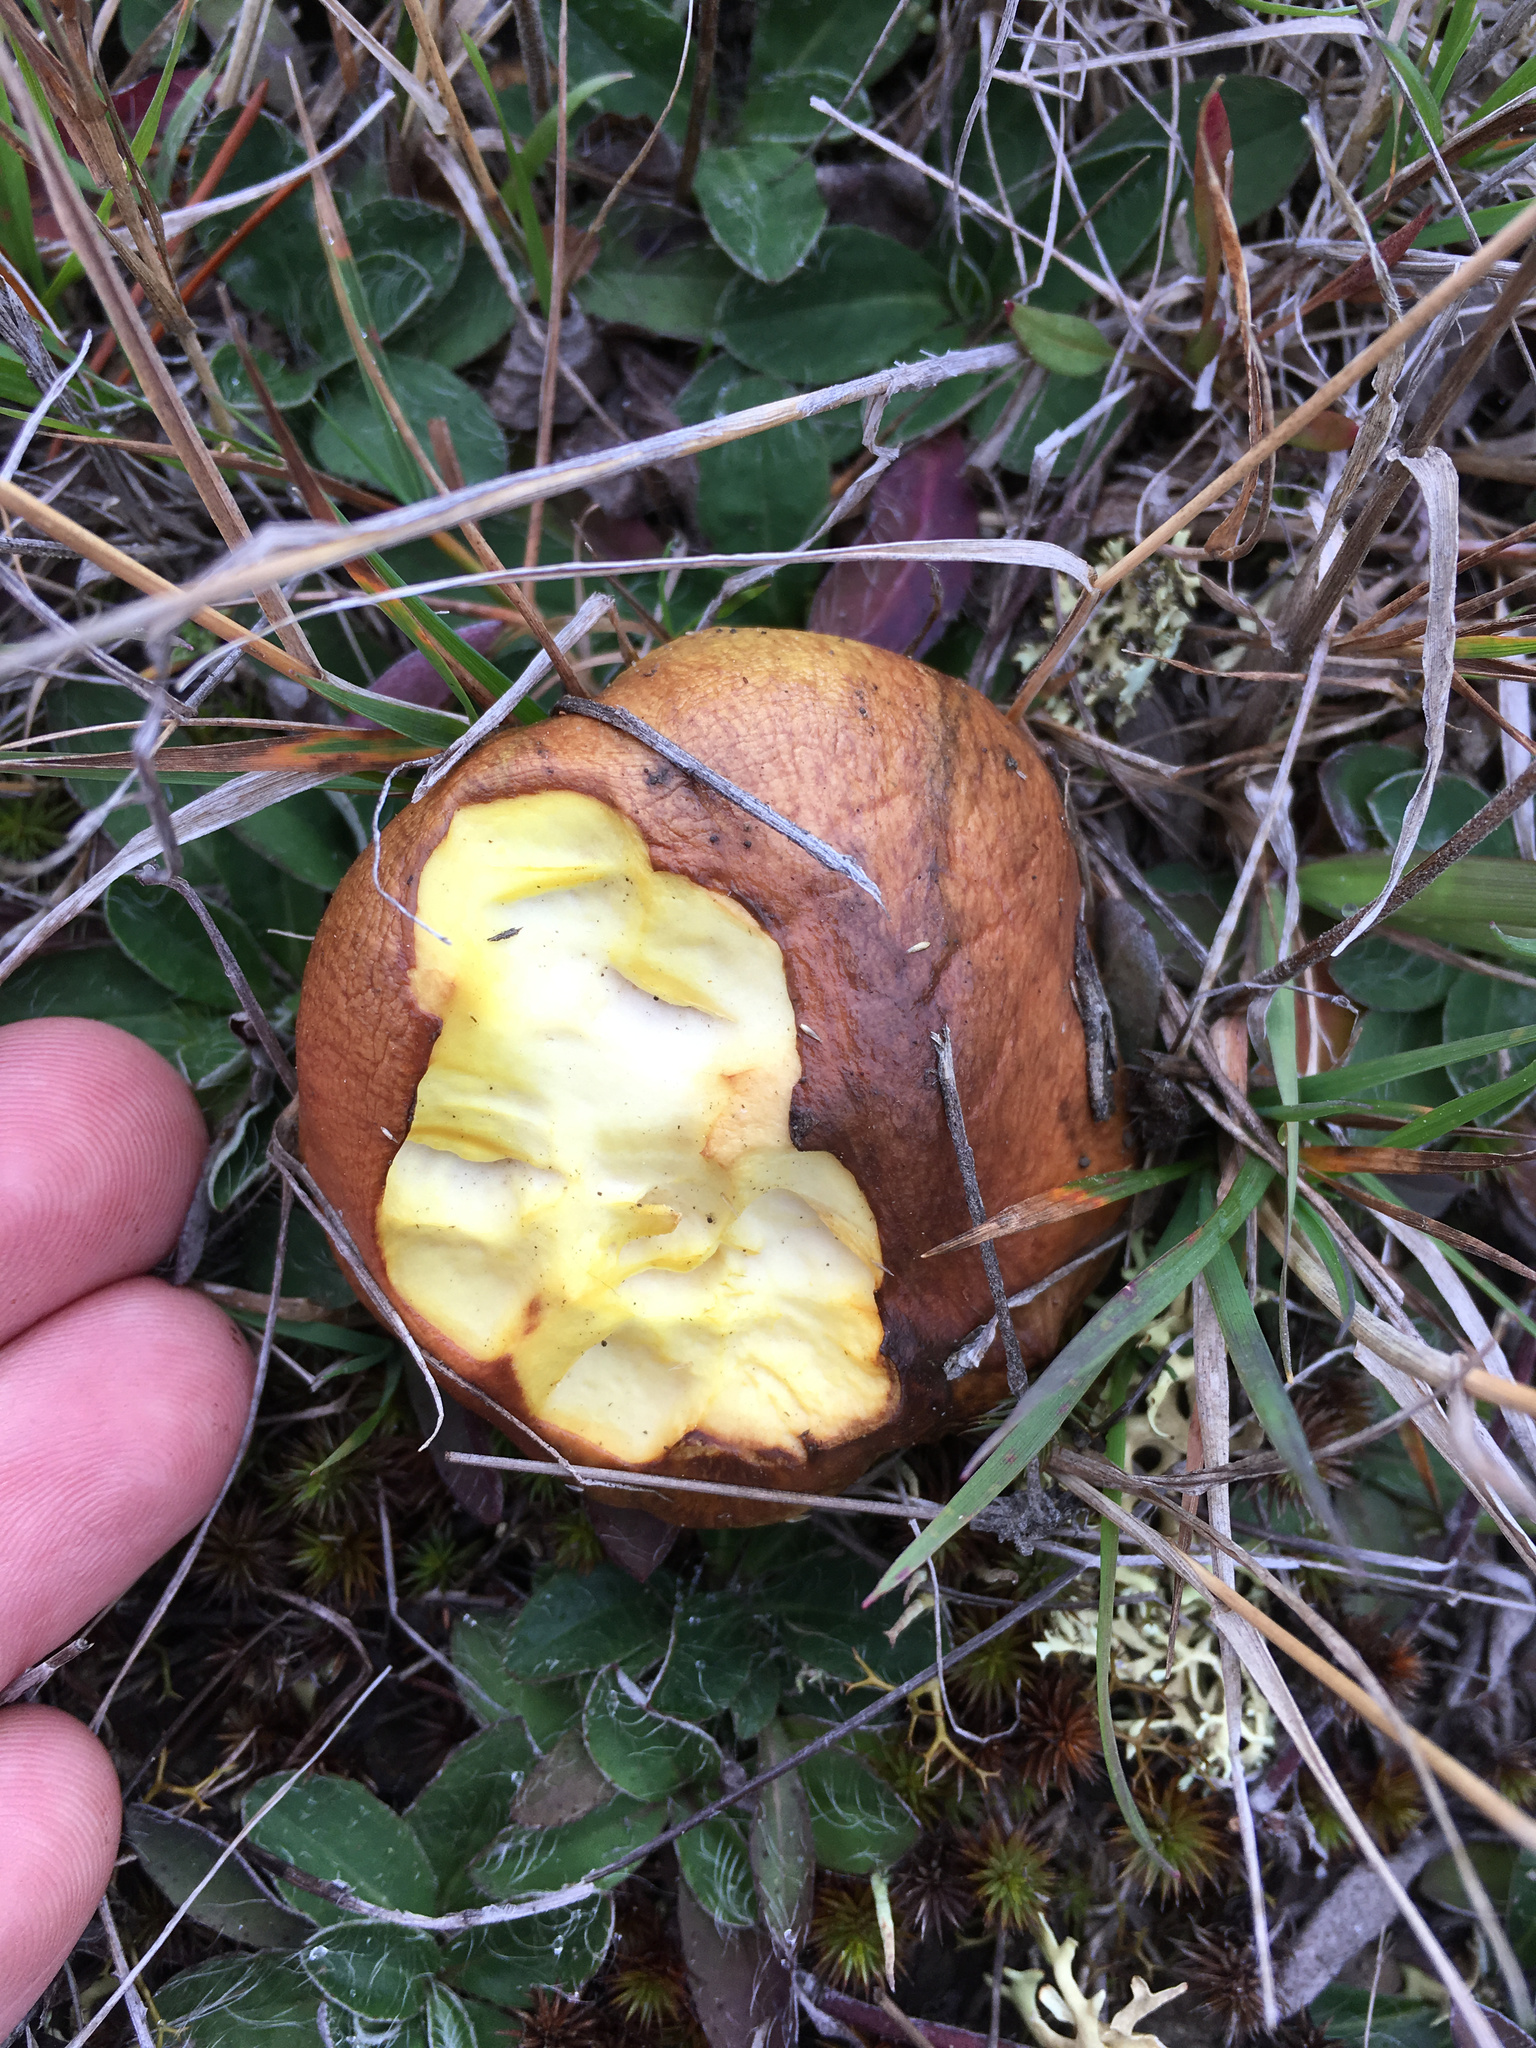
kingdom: Fungi
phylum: Basidiomycota
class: Agaricomycetes
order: Boletales
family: Suillaceae
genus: Suillus
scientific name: Suillus luteus
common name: Slippery jack
